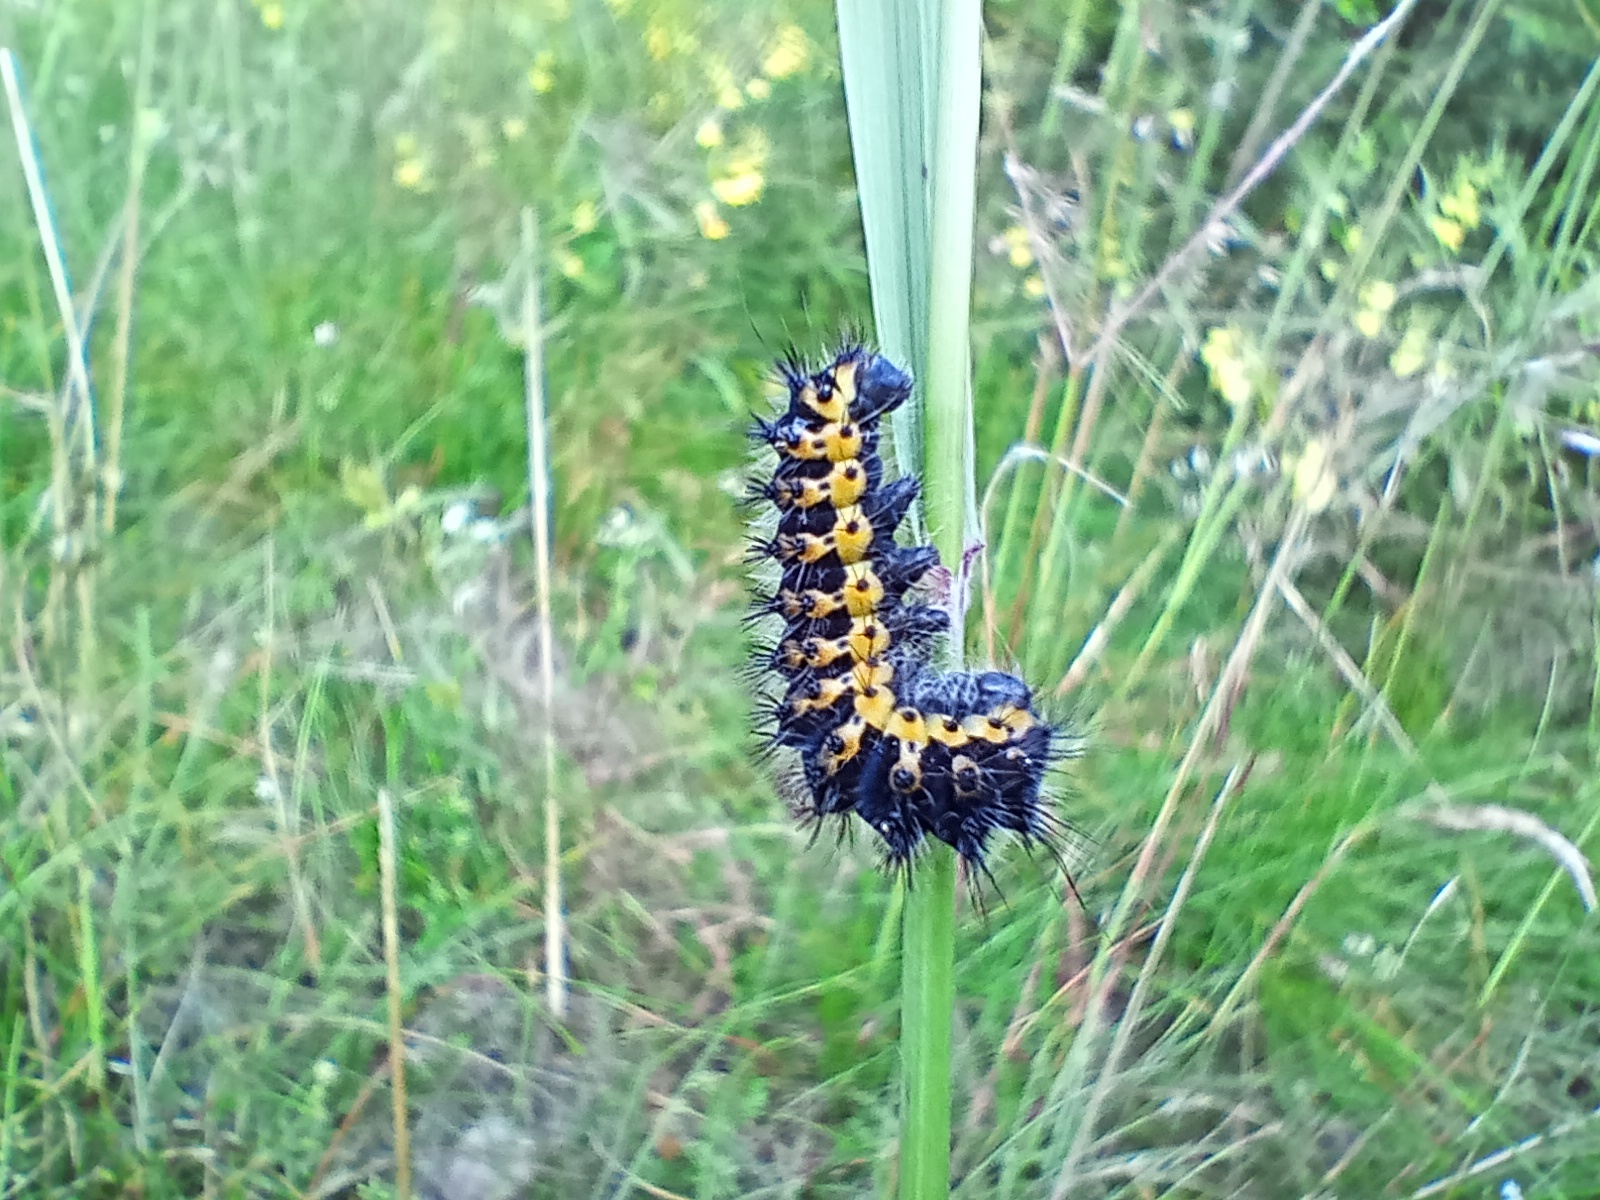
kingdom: Animalia
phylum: Arthropoda
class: Insecta
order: Lepidoptera
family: Saturniidae
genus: Saturnia
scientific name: Saturnia pavonia
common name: Emperor moth
